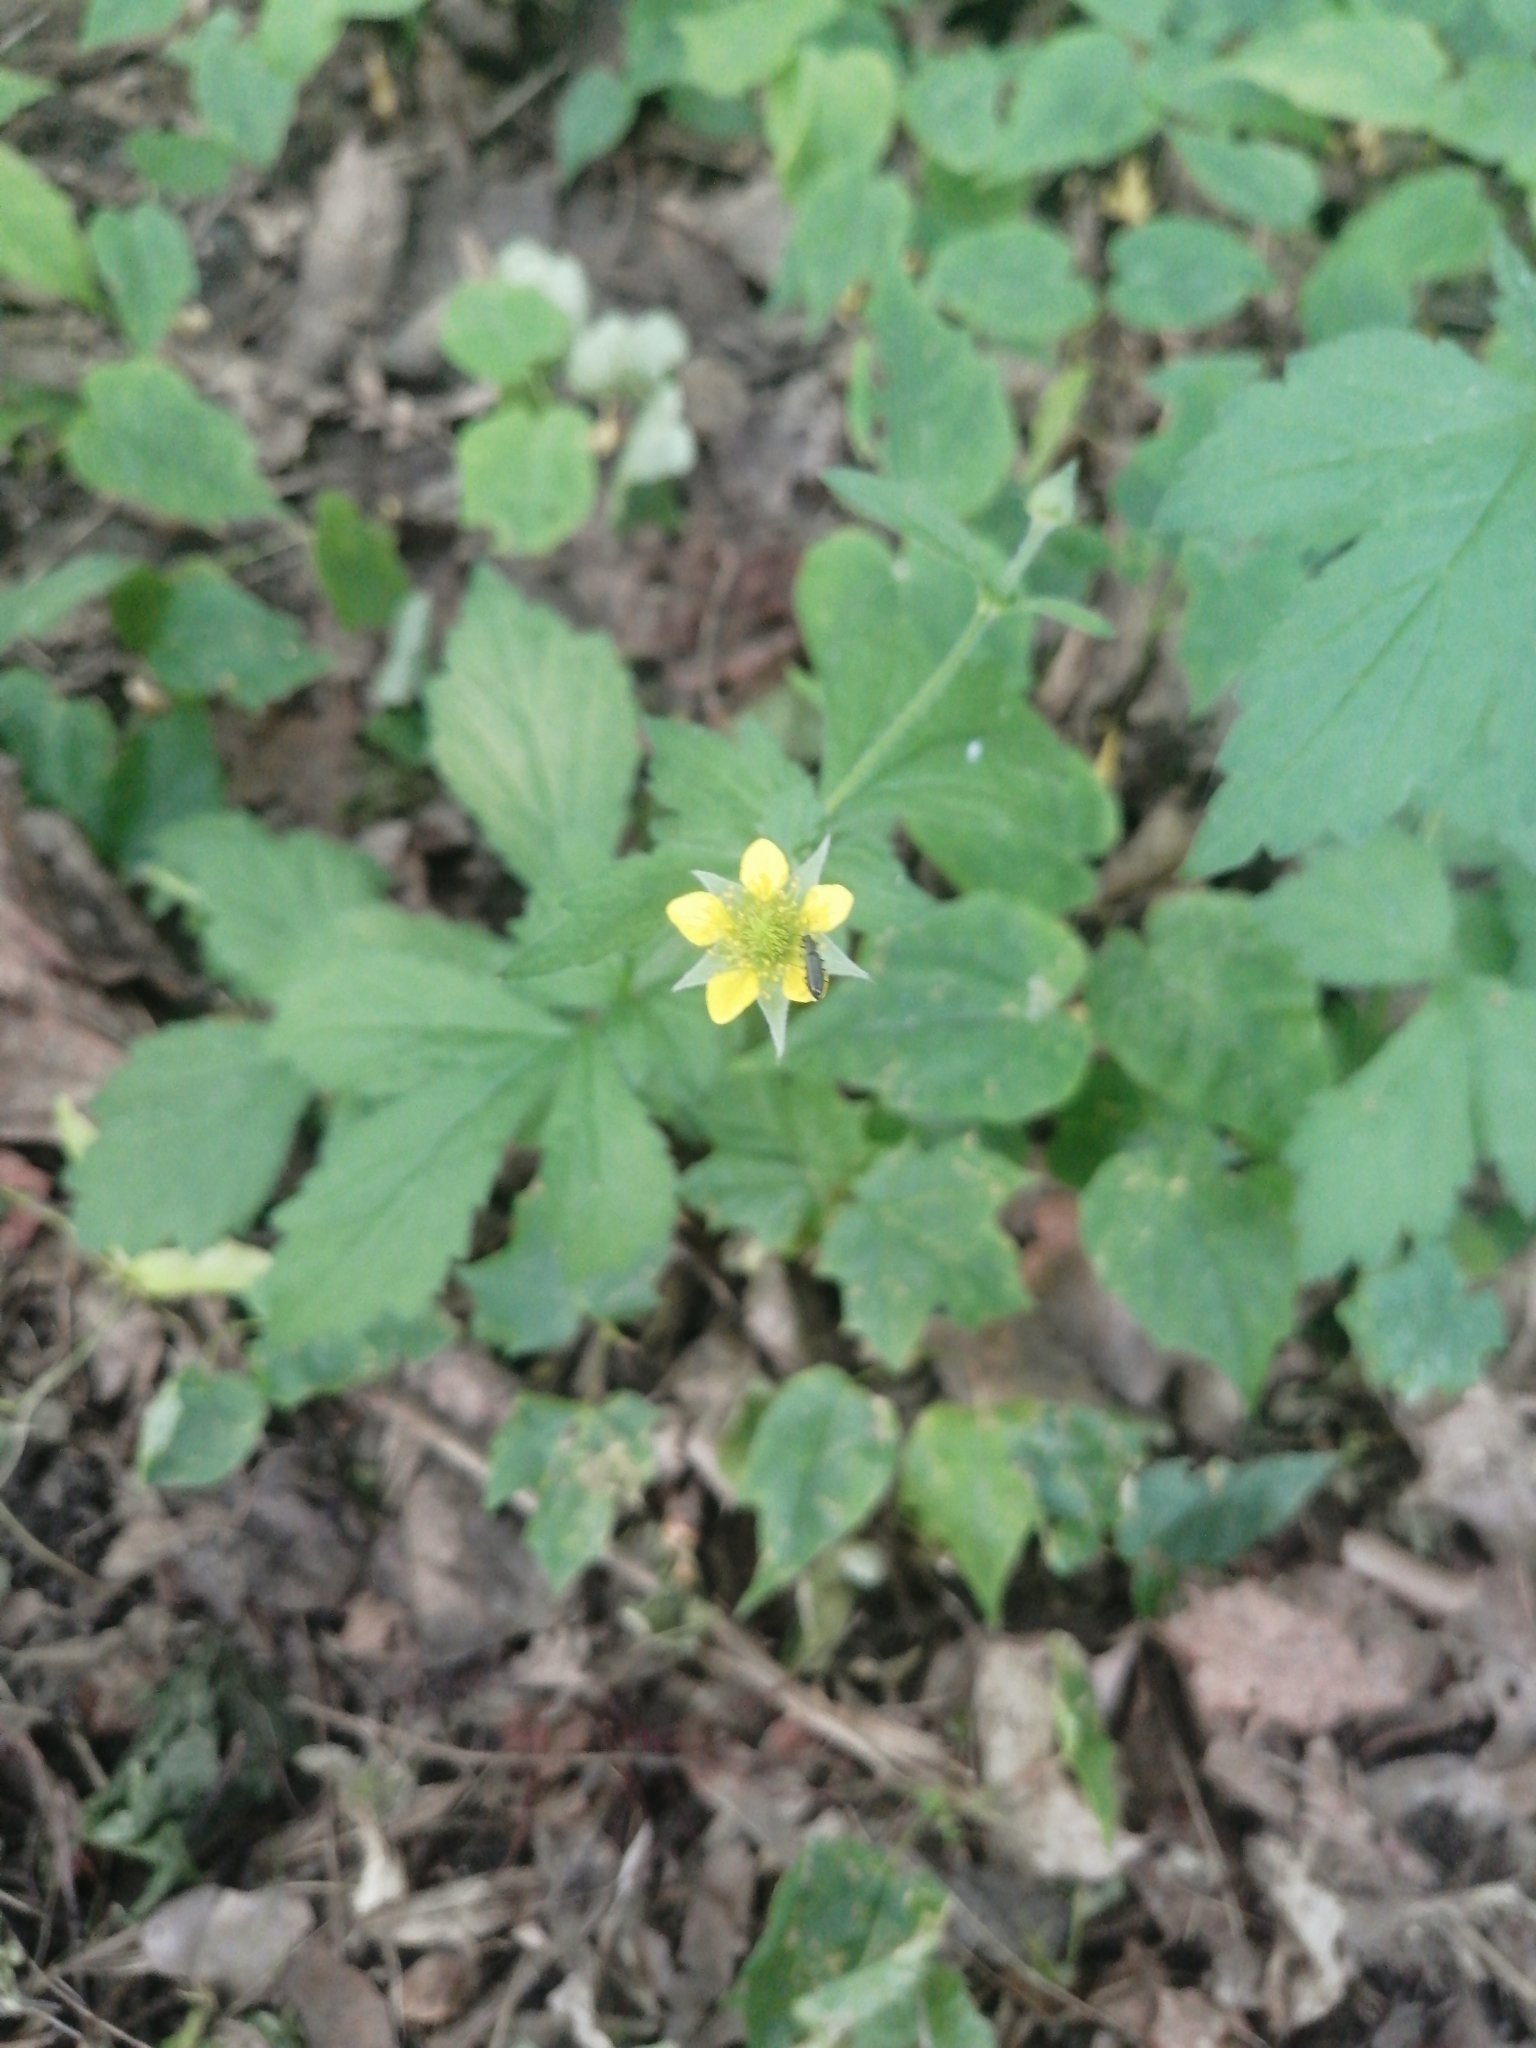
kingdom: Plantae
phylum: Tracheophyta
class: Magnoliopsida
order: Rosales
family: Rosaceae
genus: Geum
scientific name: Geum urbanum
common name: Wood avens
